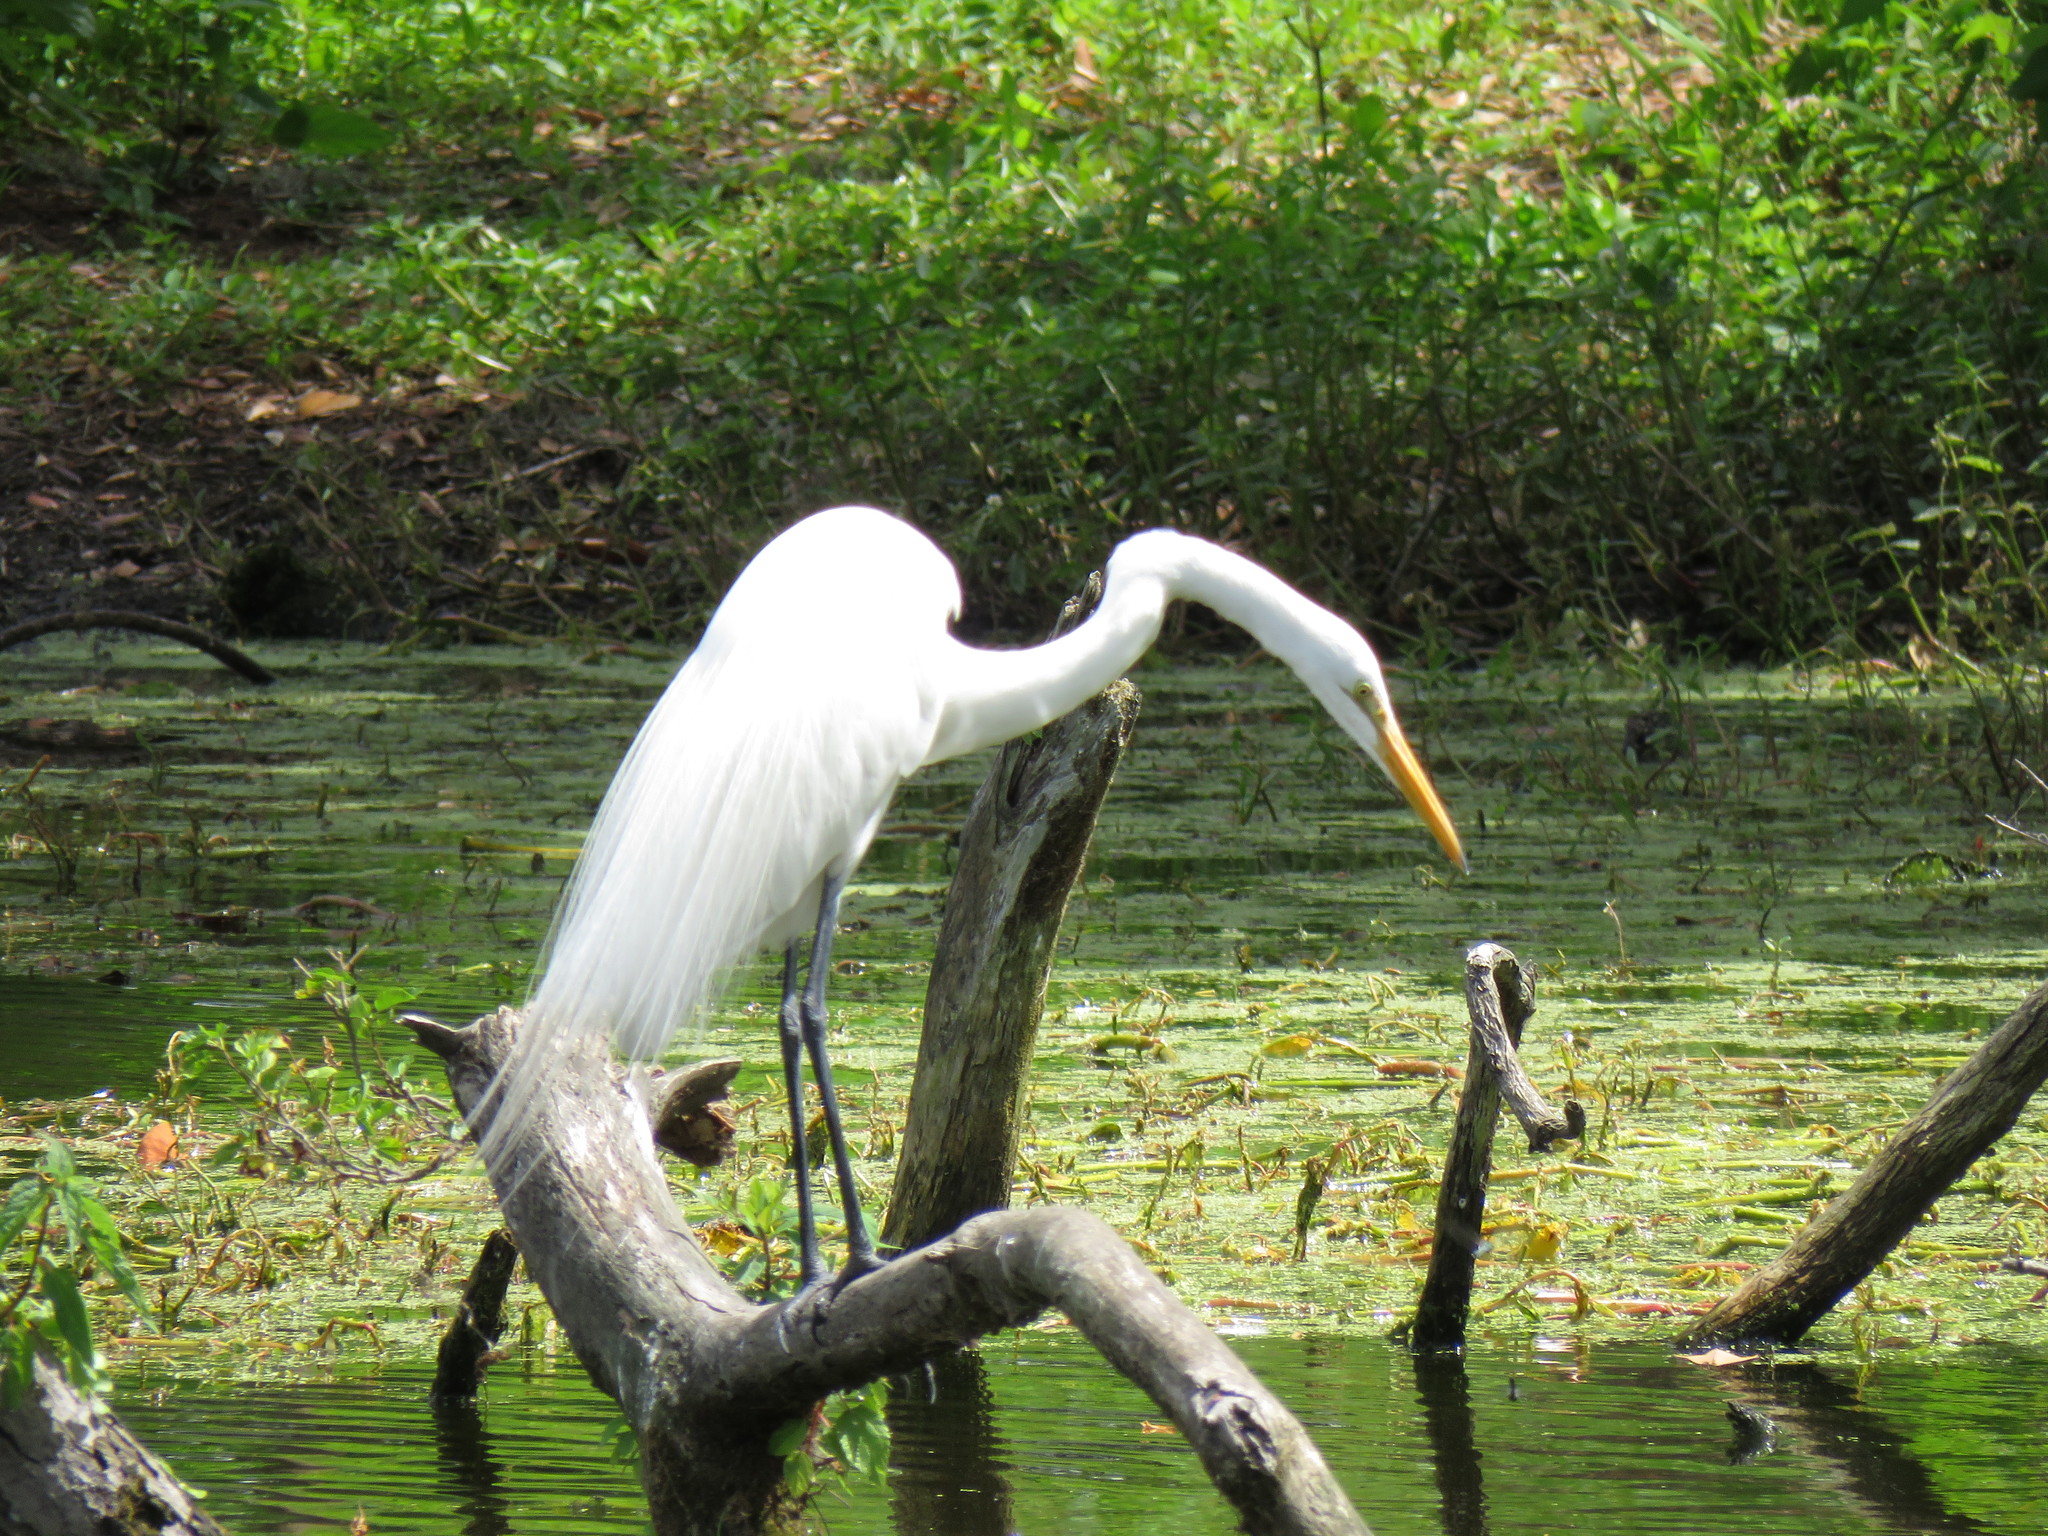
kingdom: Animalia
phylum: Chordata
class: Aves
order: Pelecaniformes
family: Ardeidae
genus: Ardea
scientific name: Ardea alba
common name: Great egret
